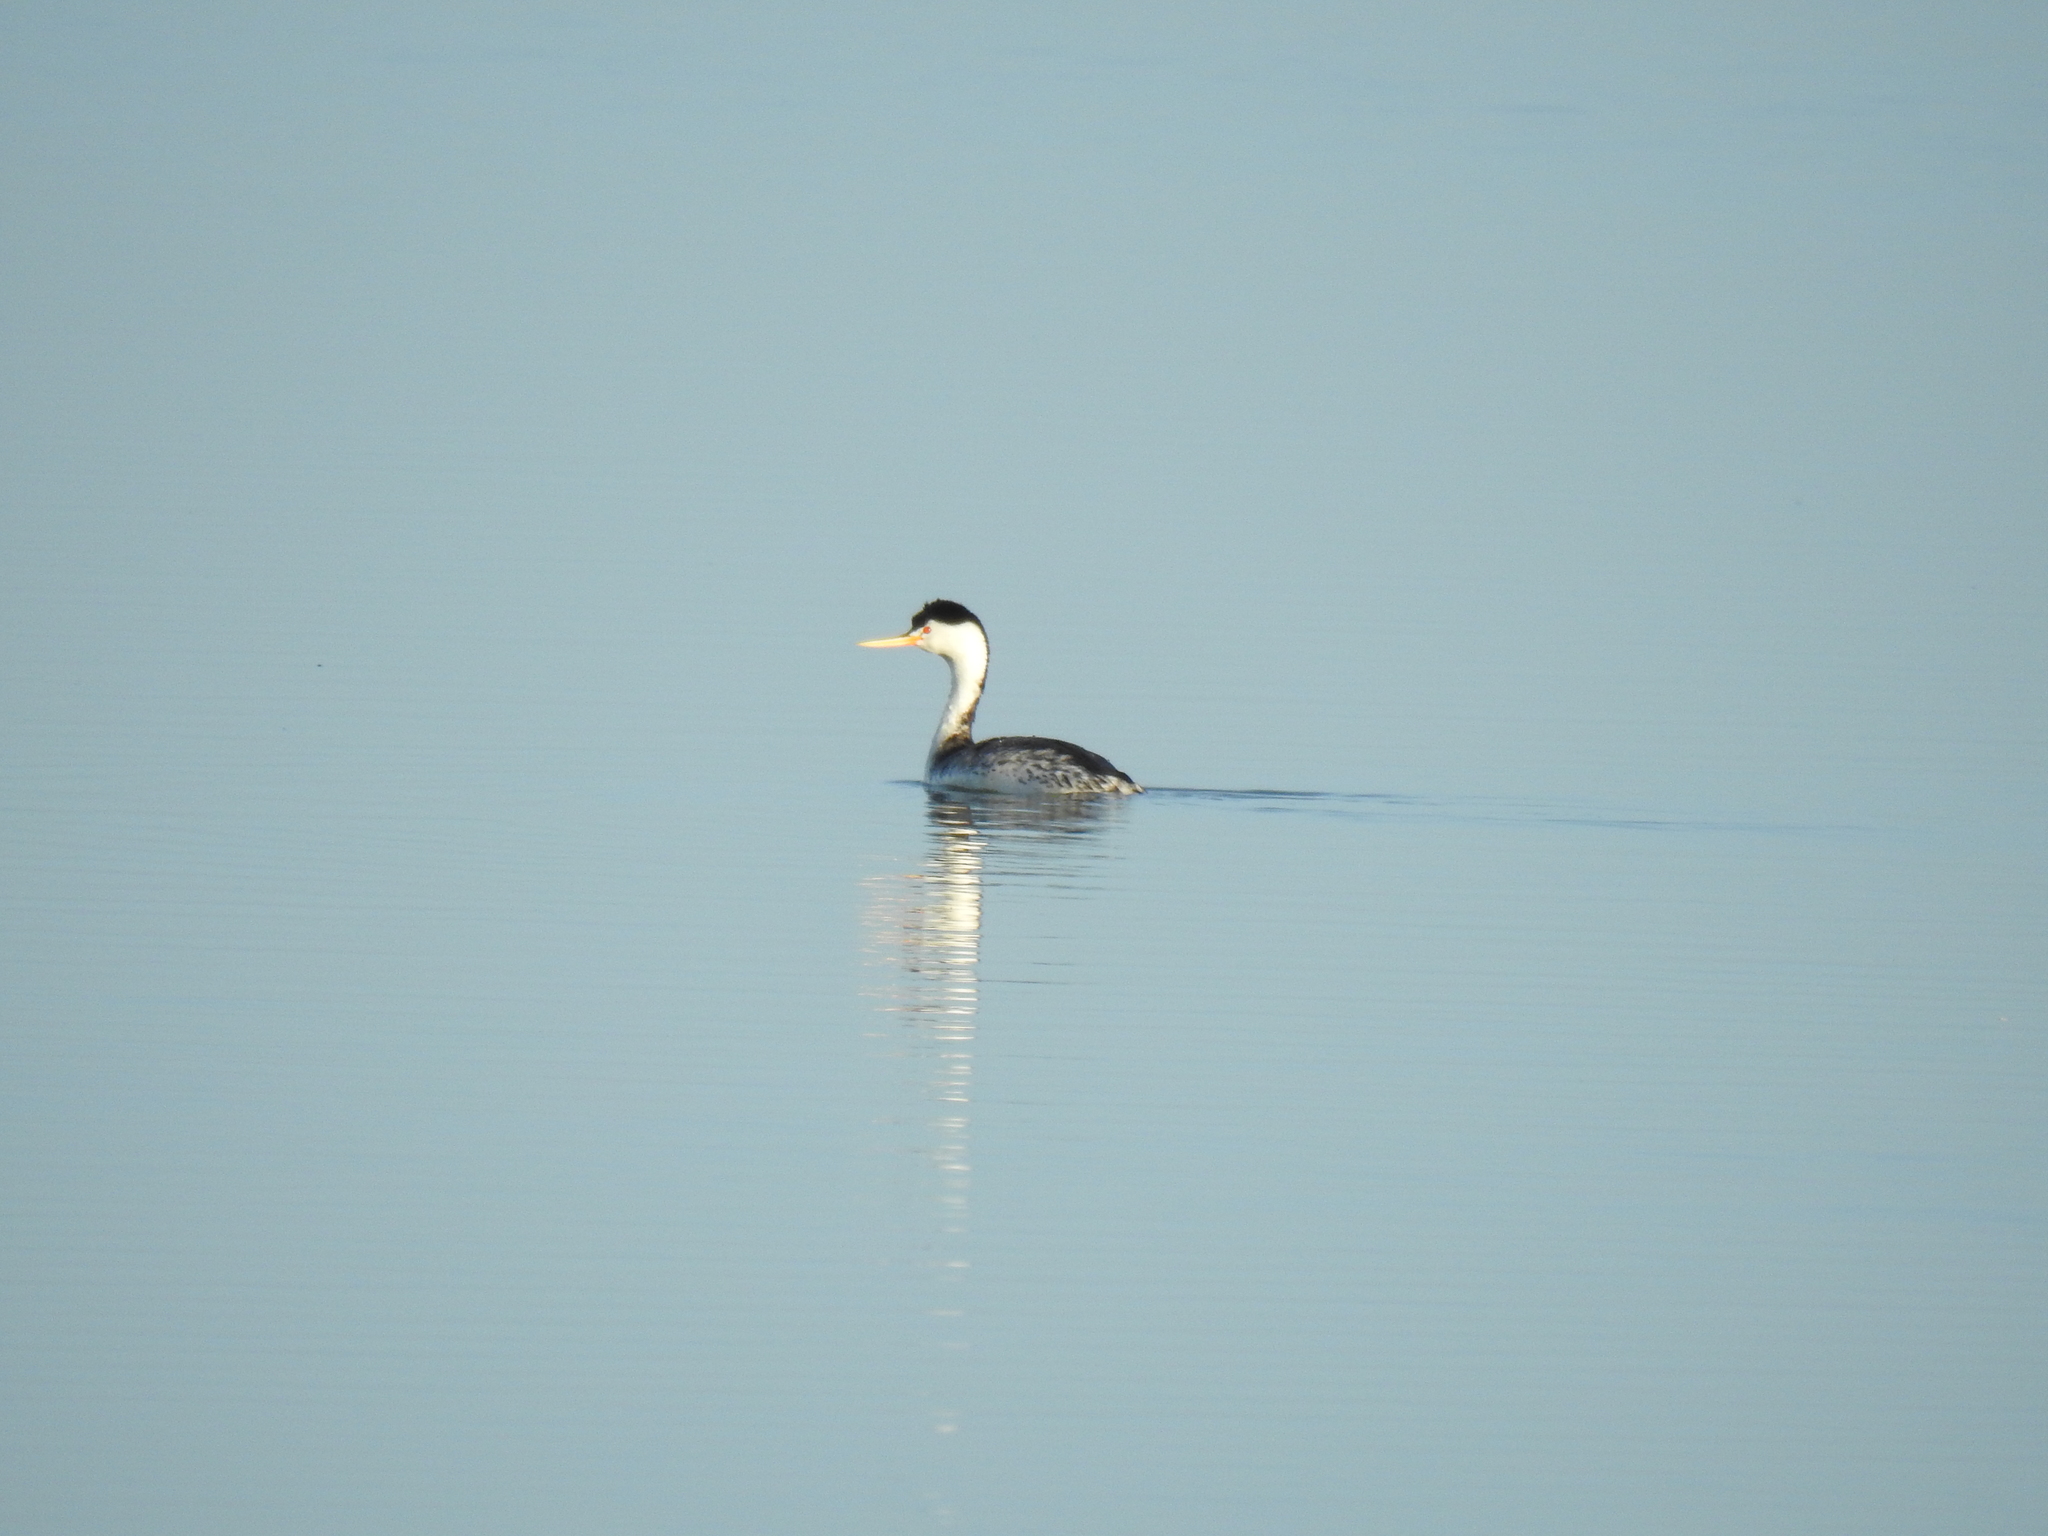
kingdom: Animalia
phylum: Chordata
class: Aves
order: Podicipediformes
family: Podicipedidae
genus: Aechmophorus
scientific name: Aechmophorus clarkii
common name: Clark's grebe
